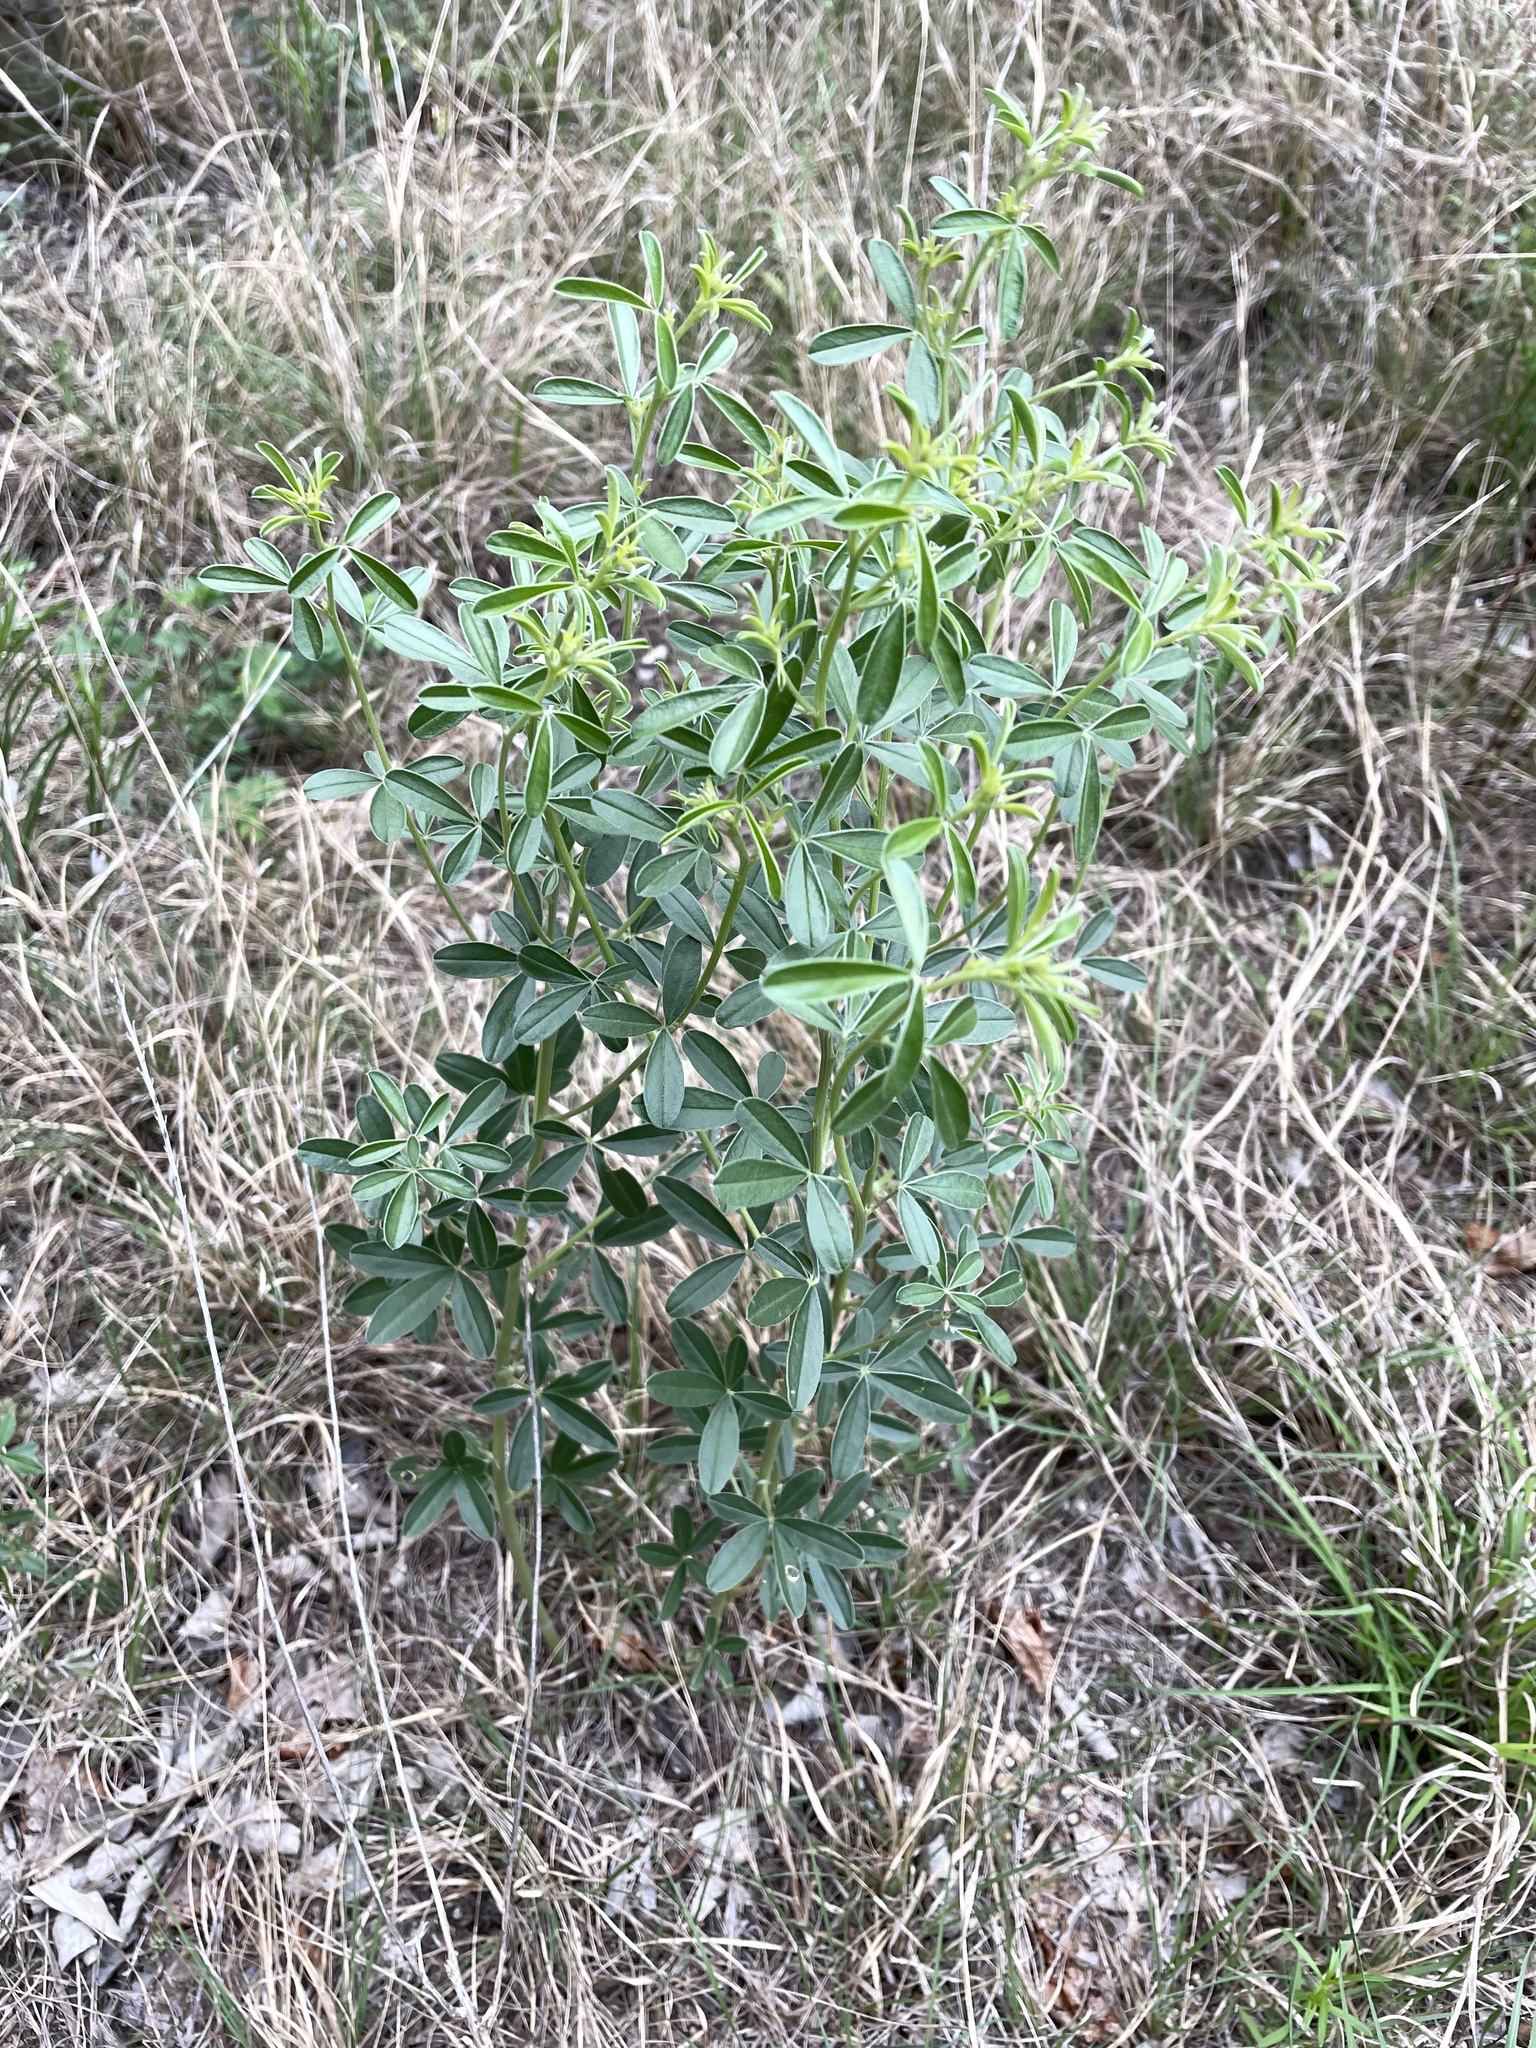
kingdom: Plantae
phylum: Tracheophyta
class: Magnoliopsida
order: Fabales
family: Fabaceae
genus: Pediomelum
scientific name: Pediomelum tenuiflorum
